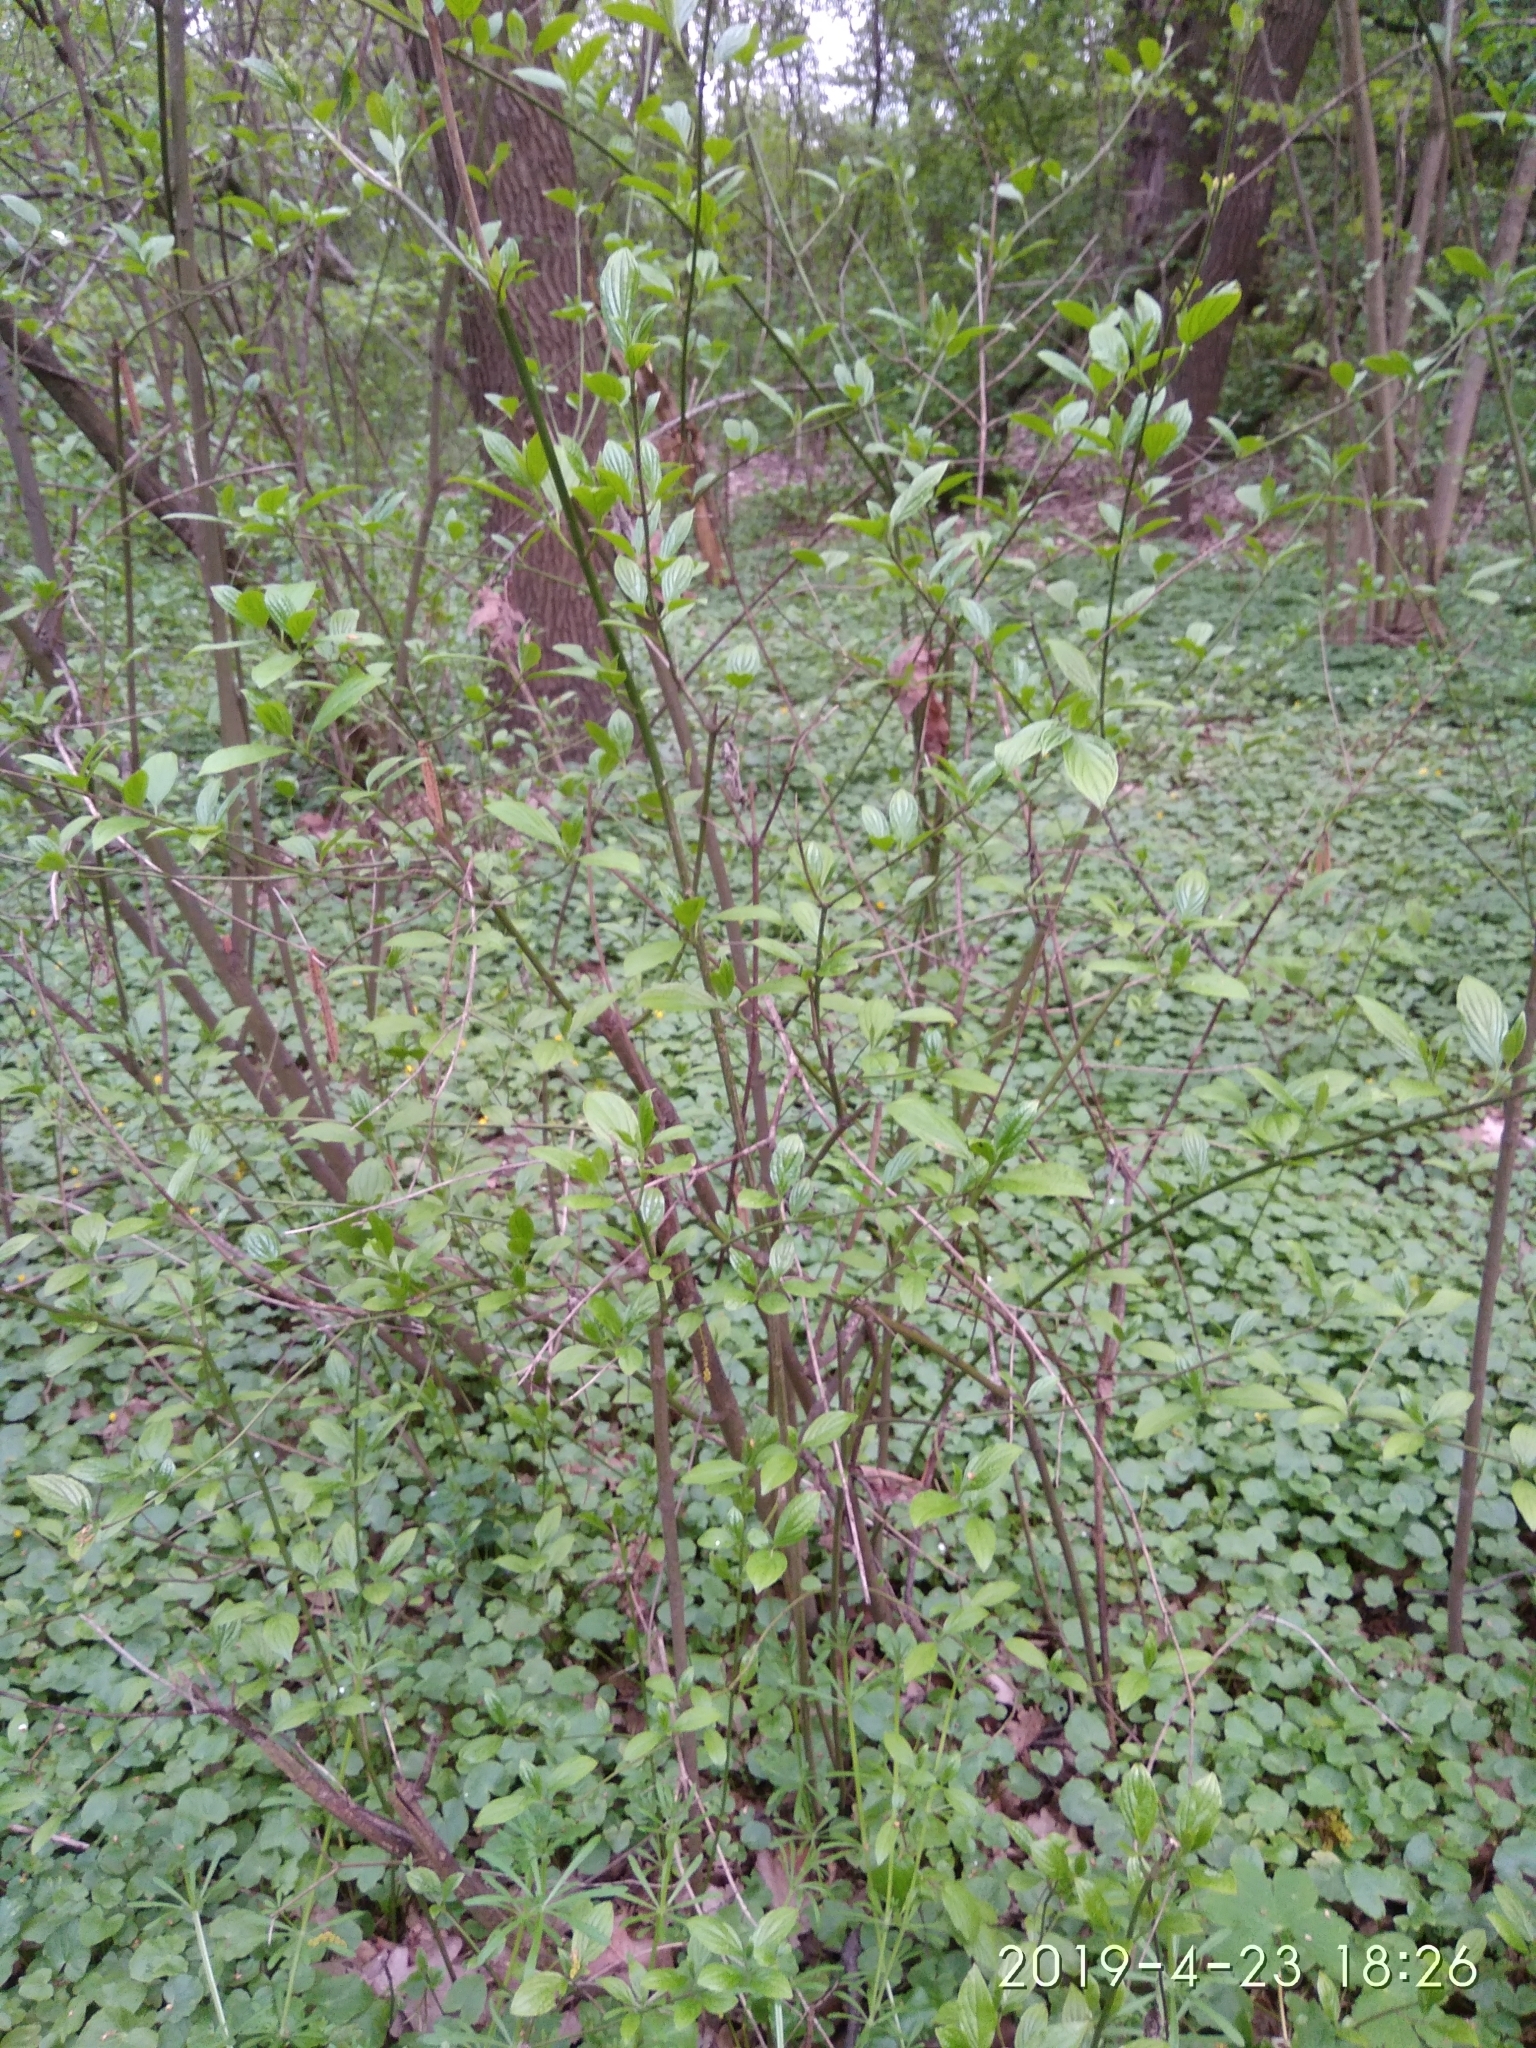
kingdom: Plantae
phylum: Tracheophyta
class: Magnoliopsida
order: Cornales
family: Cornaceae
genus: Cornus
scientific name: Cornus sanguinea
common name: Dogwood
